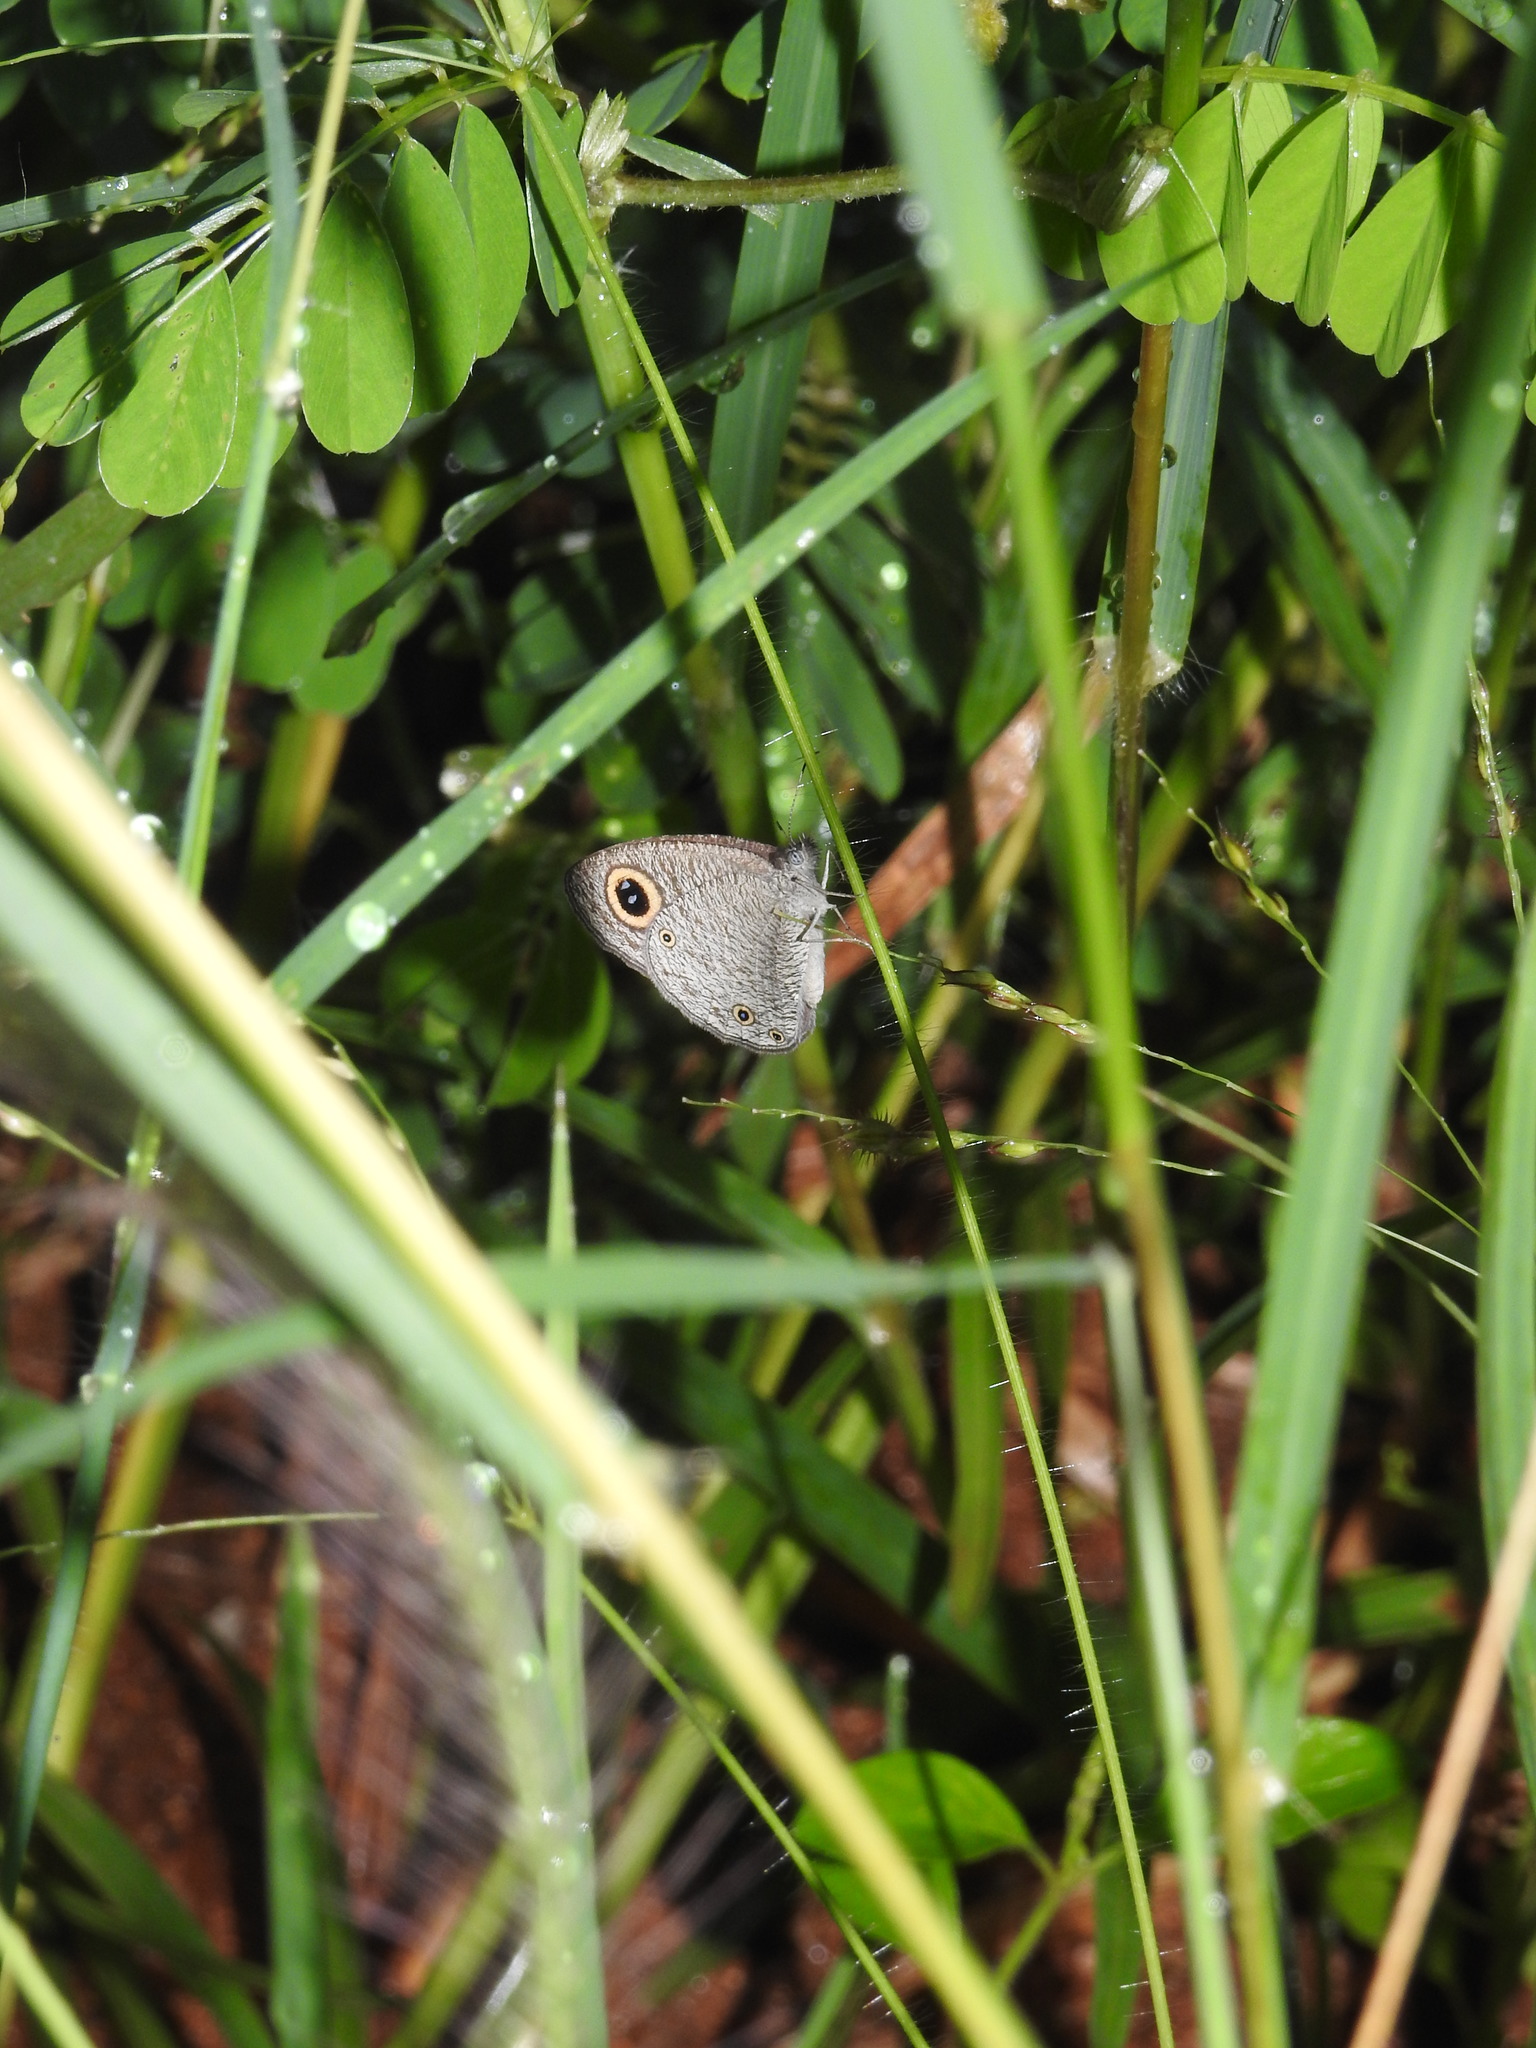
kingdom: Animalia
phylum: Arthropoda
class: Insecta
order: Lepidoptera
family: Nymphalidae
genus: Ypthima
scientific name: Ypthima asterope
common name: African ringlet
